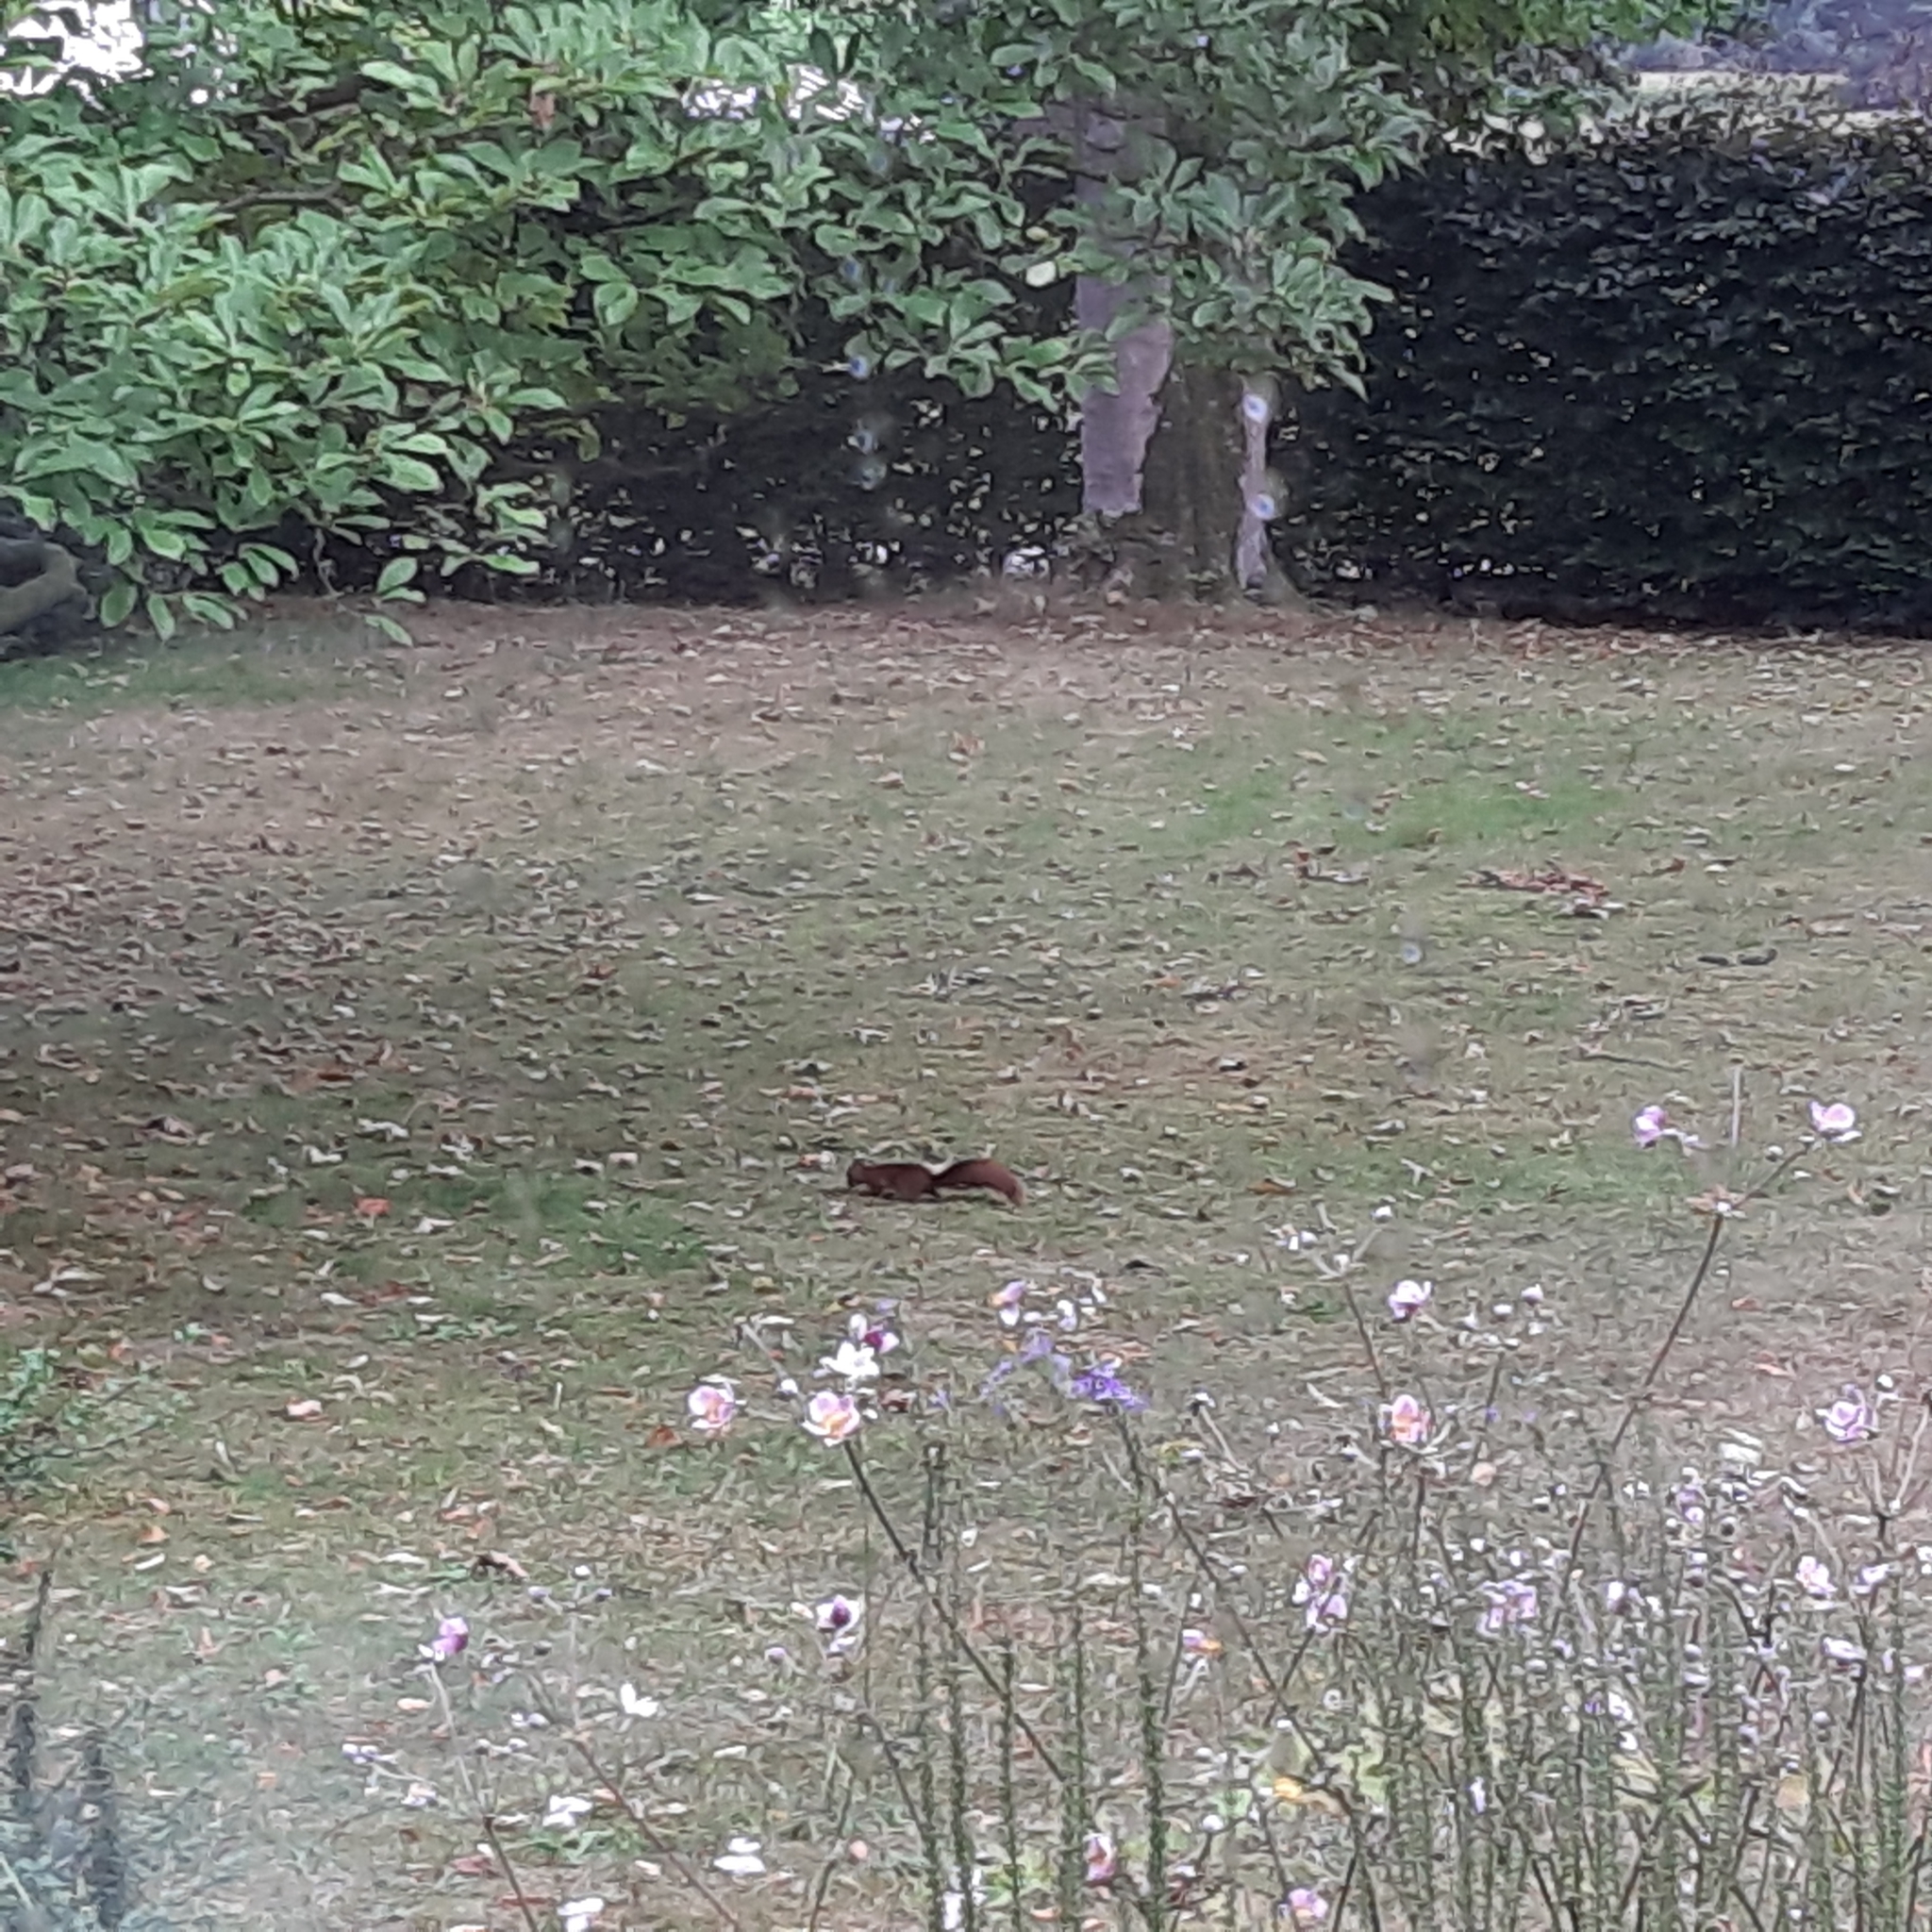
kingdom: Animalia
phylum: Chordata
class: Mammalia
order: Rodentia
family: Sciuridae
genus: Sciurus
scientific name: Sciurus vulgaris
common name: Eurasian red squirrel
